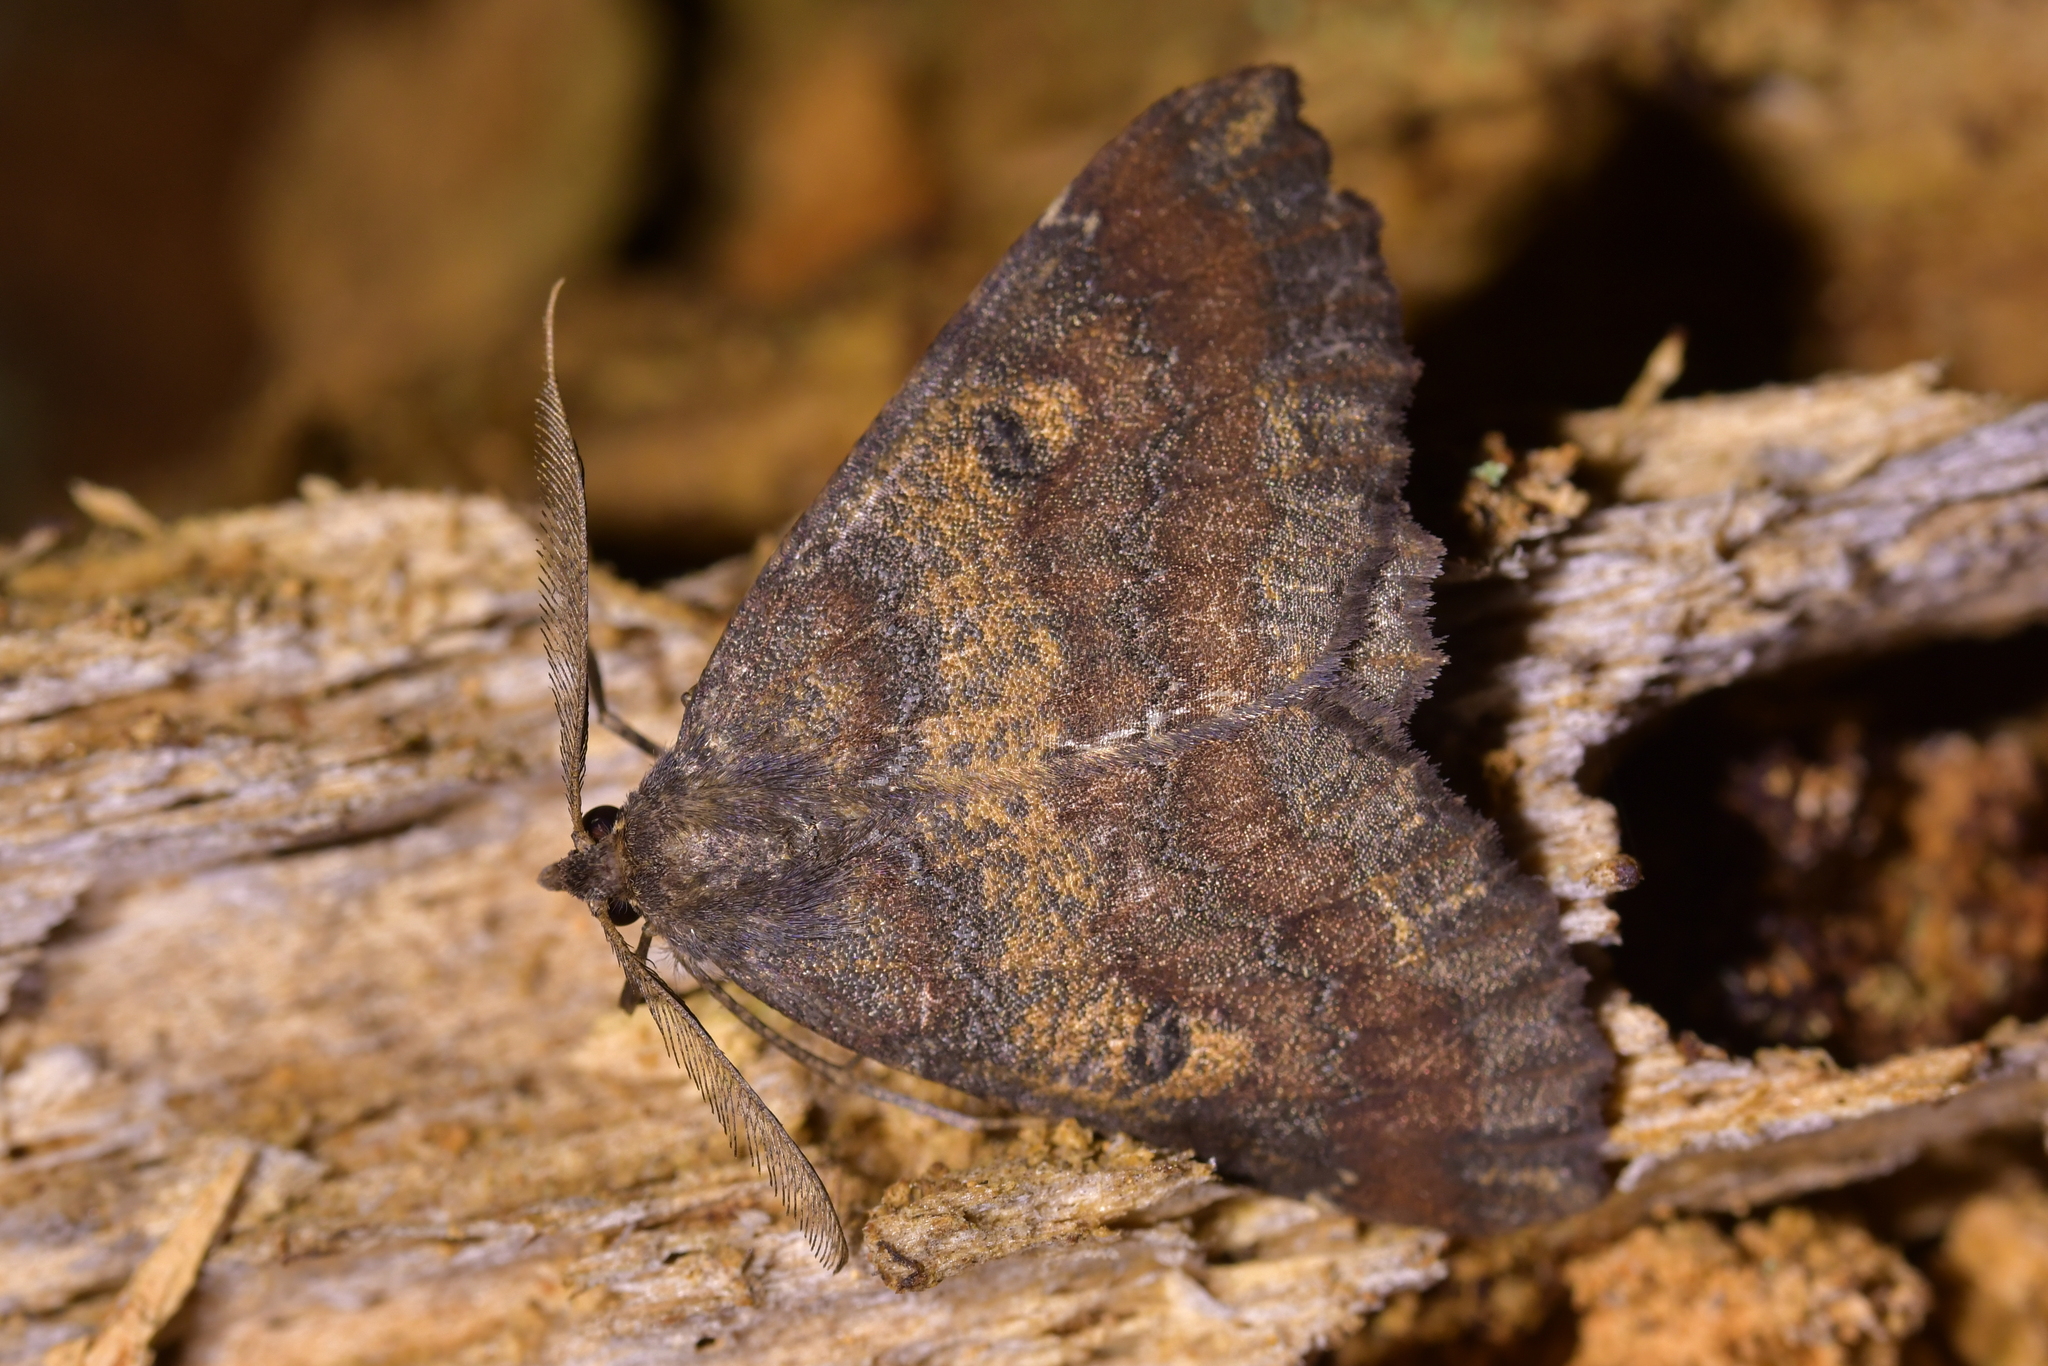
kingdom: Animalia
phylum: Arthropoda
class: Insecta
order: Lepidoptera
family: Geometridae
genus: Cleora
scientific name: Cleora scriptaria
